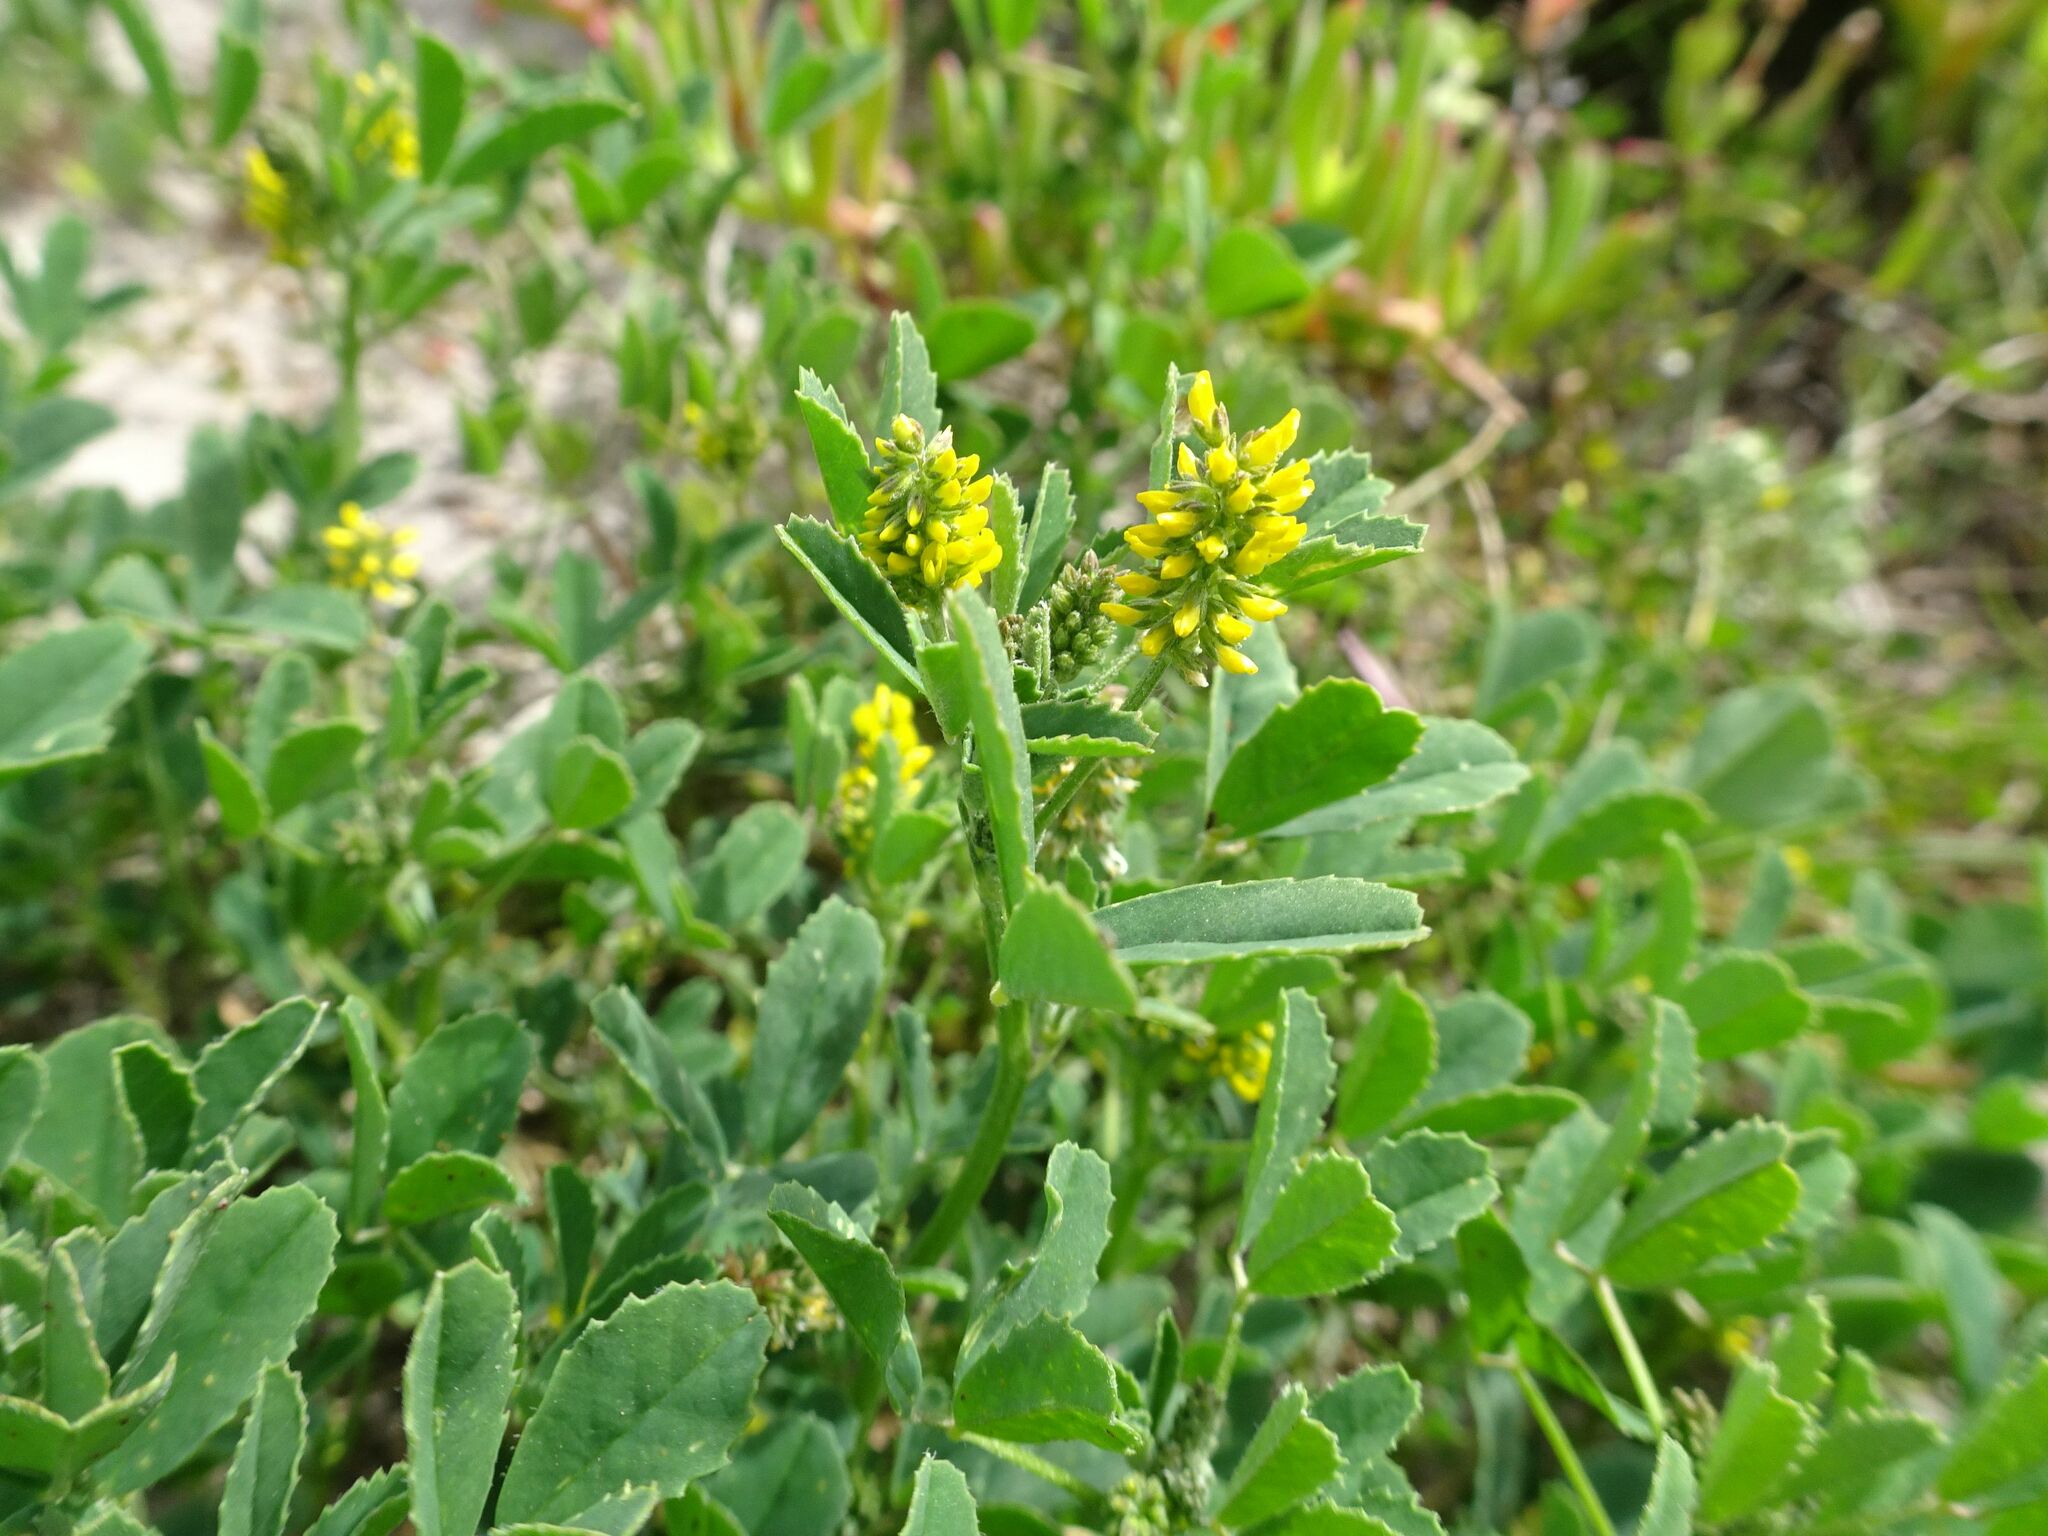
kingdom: Plantae
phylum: Tracheophyta
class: Magnoliopsida
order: Fabales
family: Fabaceae
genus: Melilotus
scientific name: Melilotus indicus
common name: Small melilot
